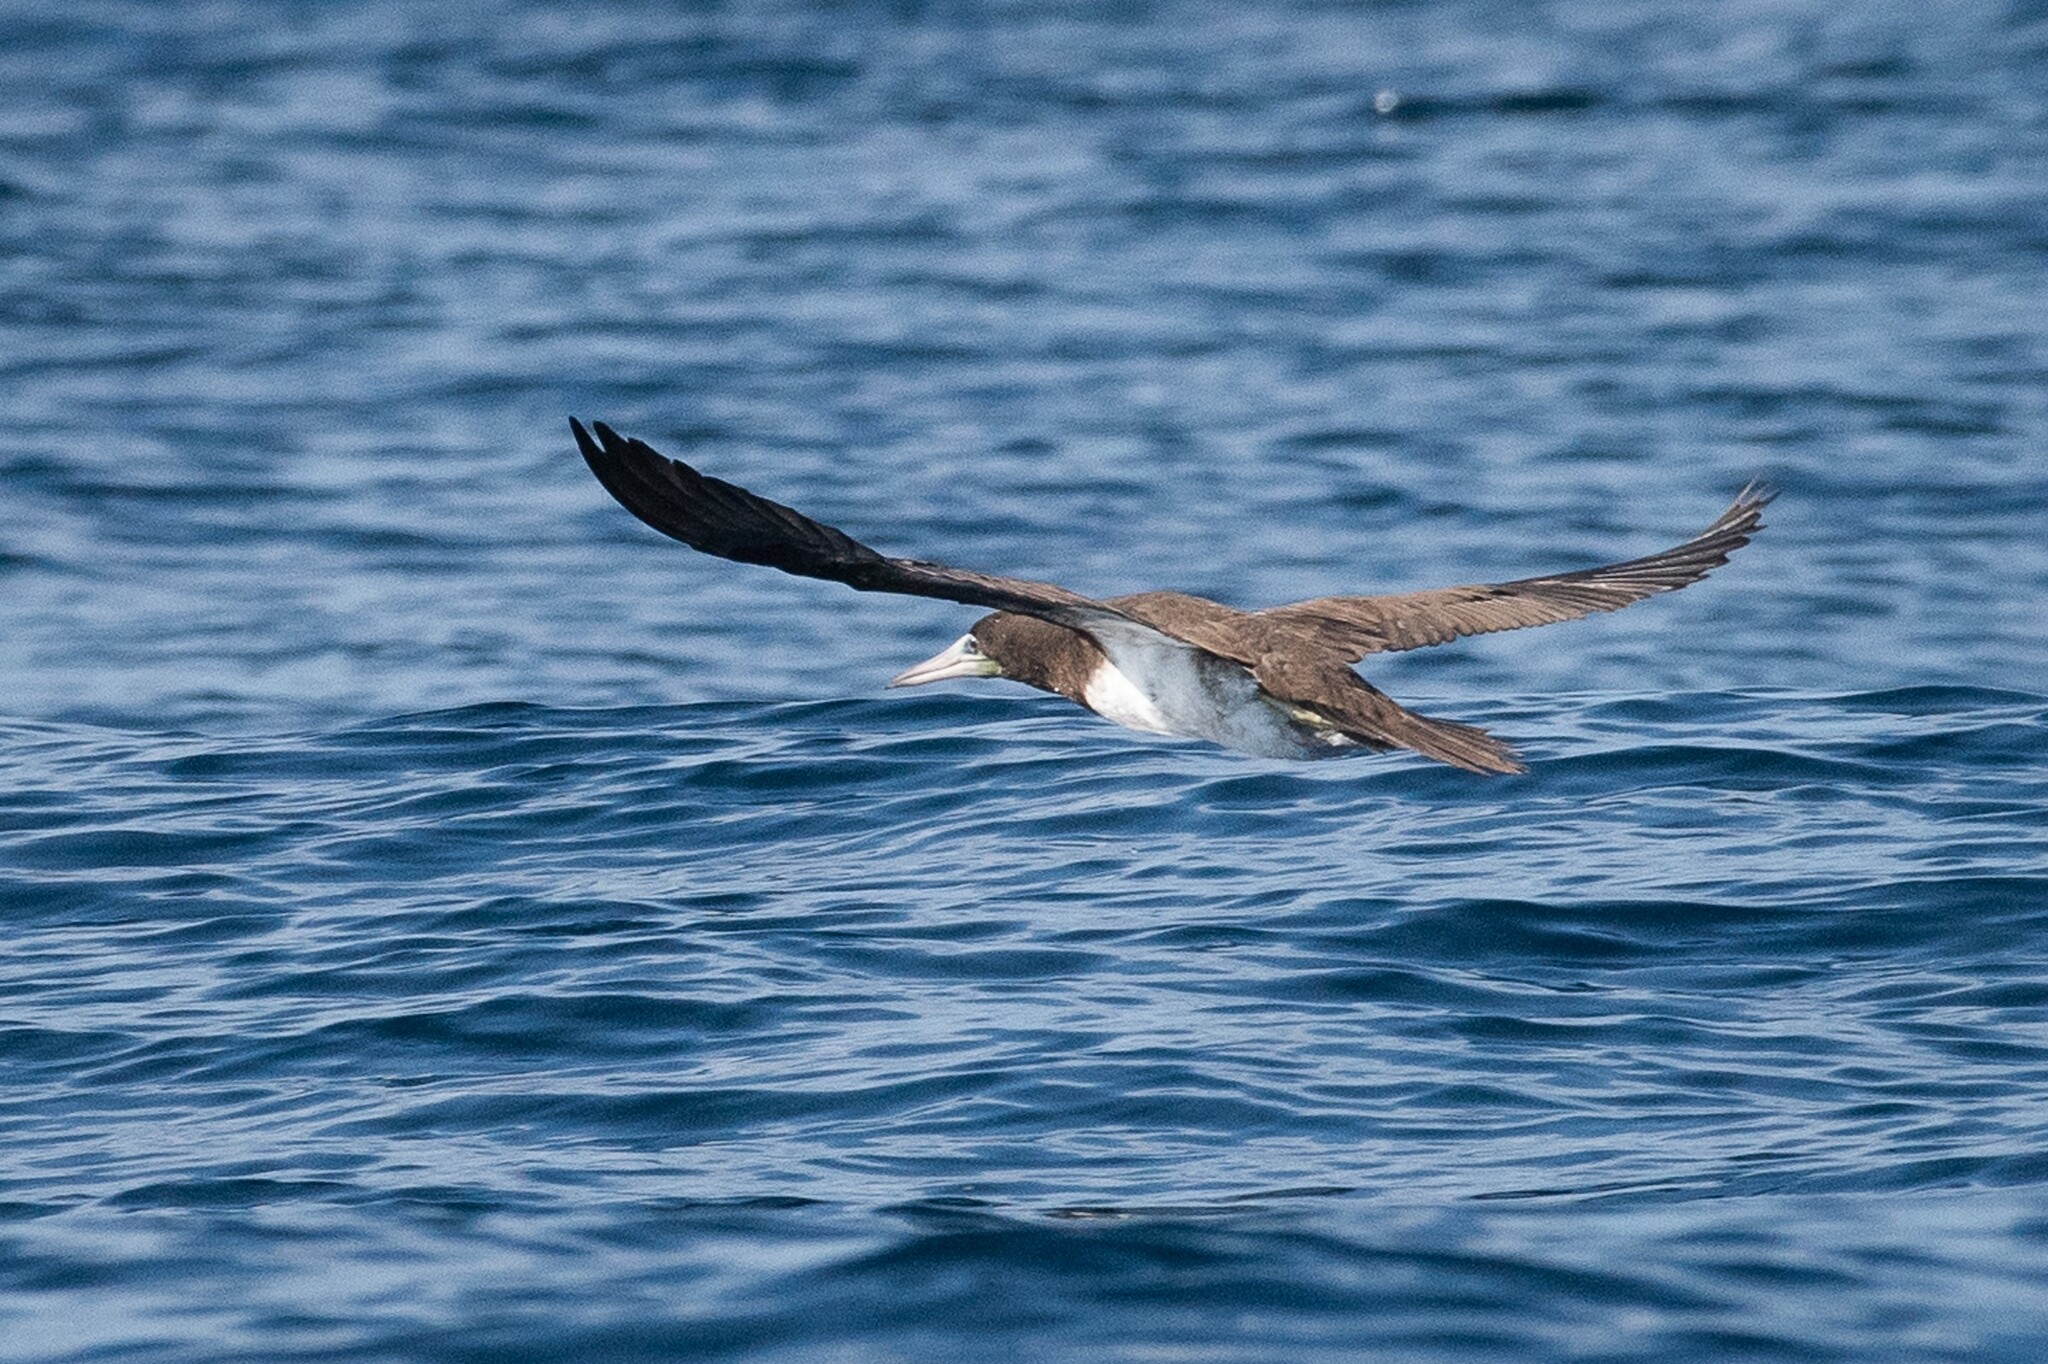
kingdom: Animalia
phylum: Chordata
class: Aves
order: Suliformes
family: Sulidae
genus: Sula
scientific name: Sula leucogaster
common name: Brown booby
